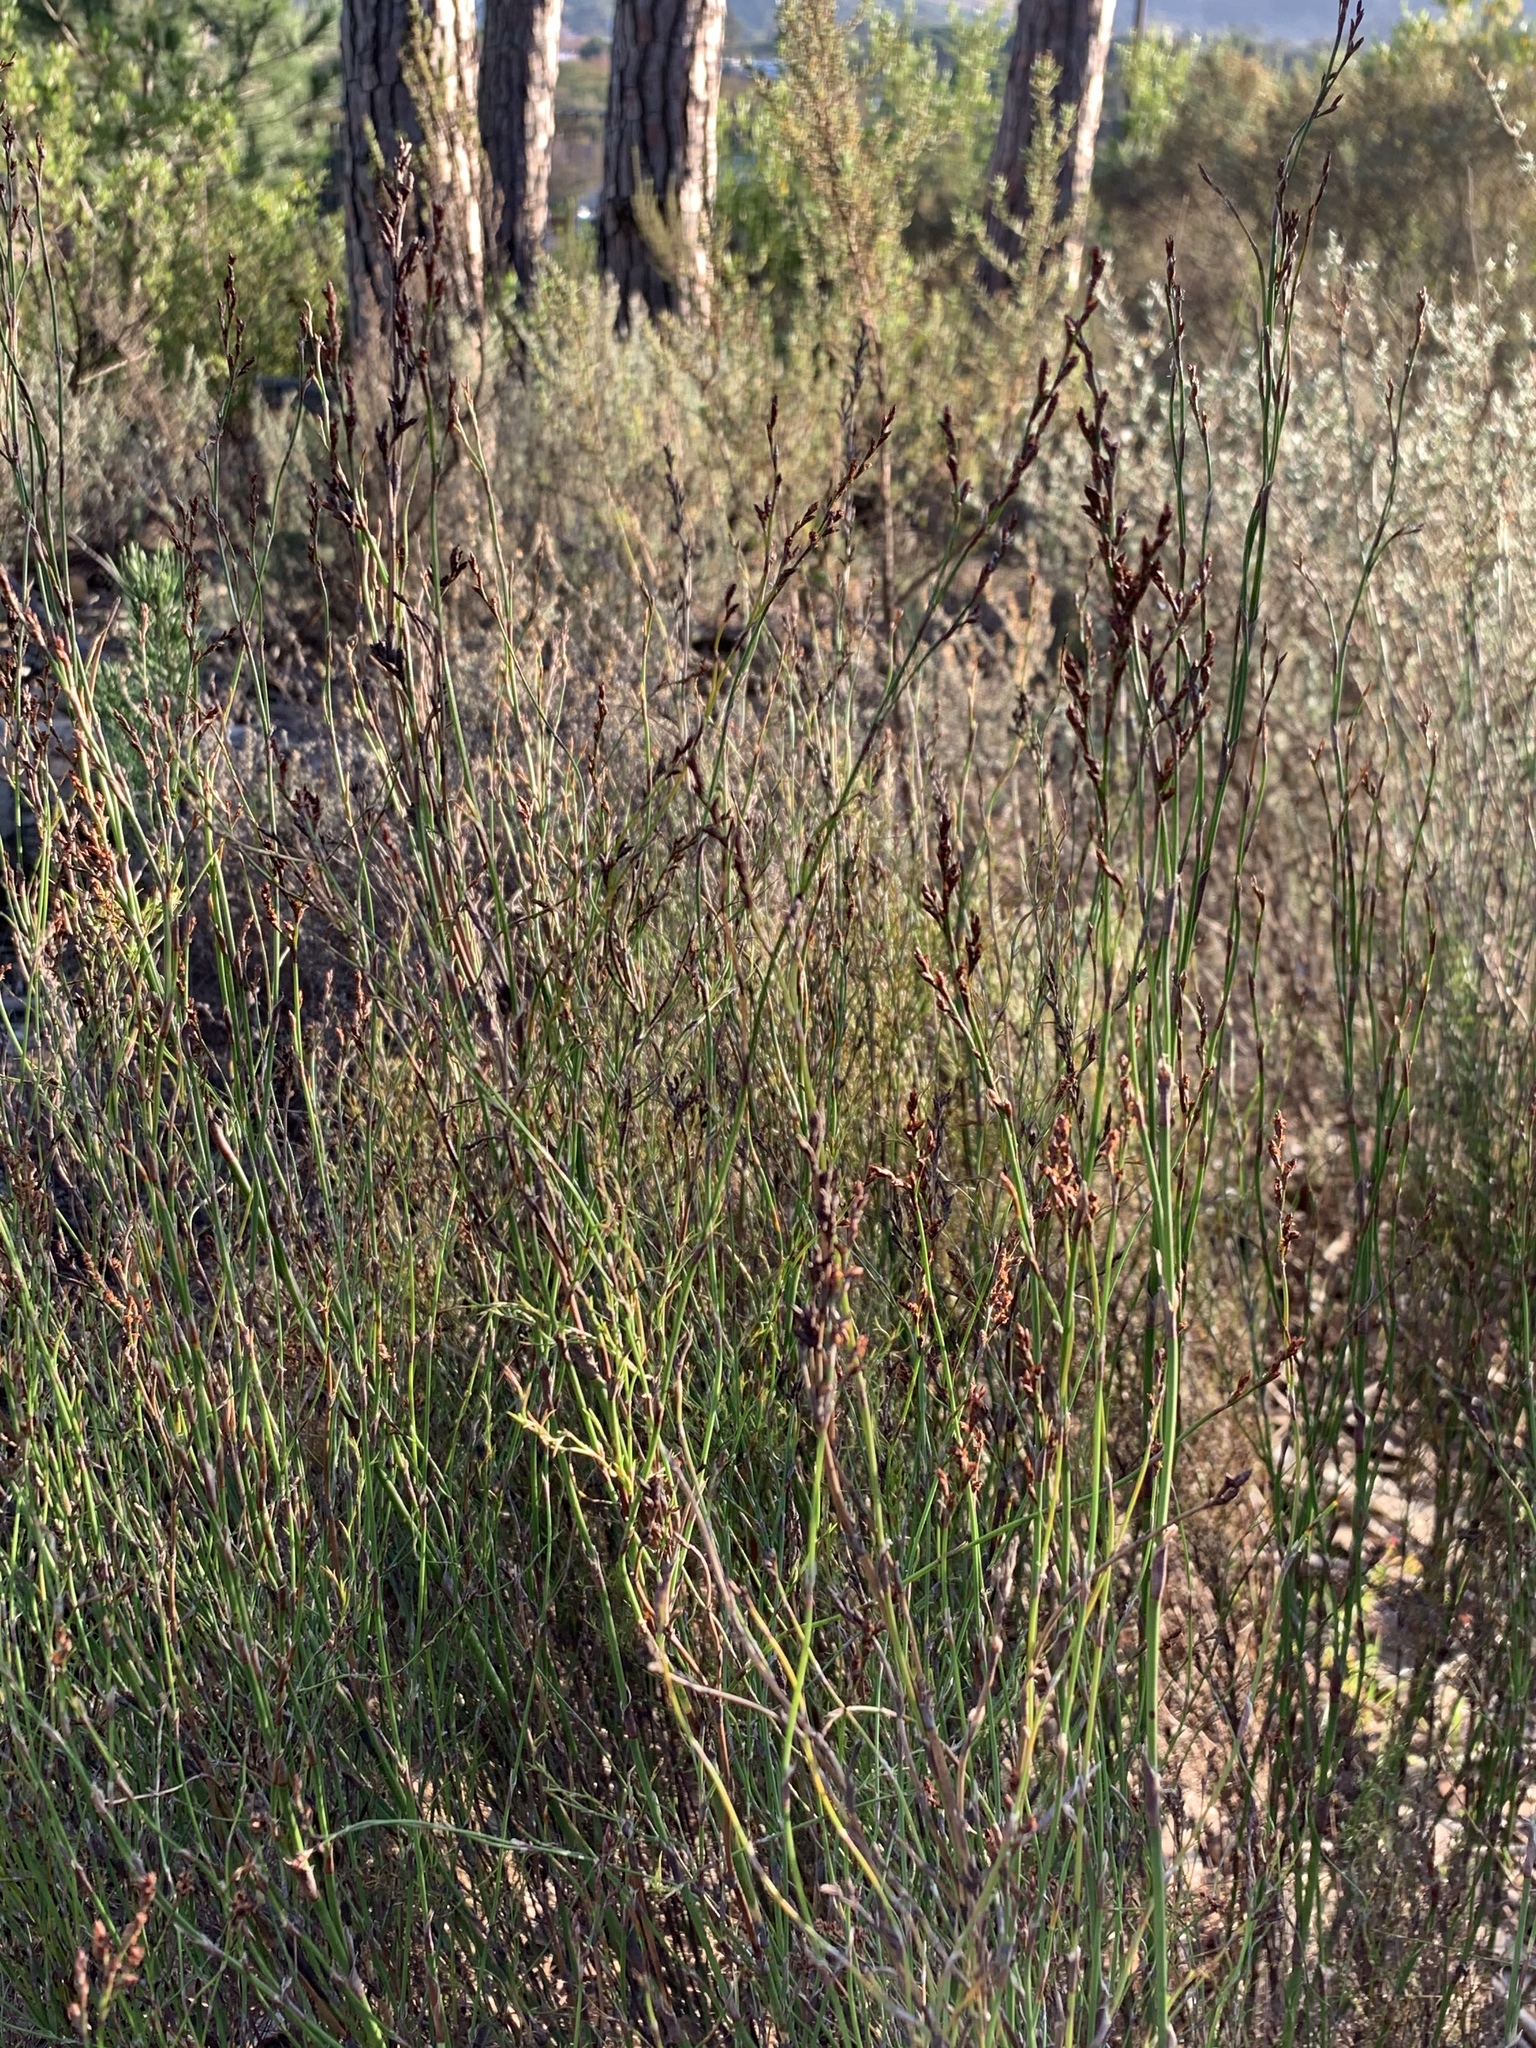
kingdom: Plantae
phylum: Tracheophyta
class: Liliopsida
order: Poales
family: Restionaceae
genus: Restio
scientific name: Restio tetragonus
